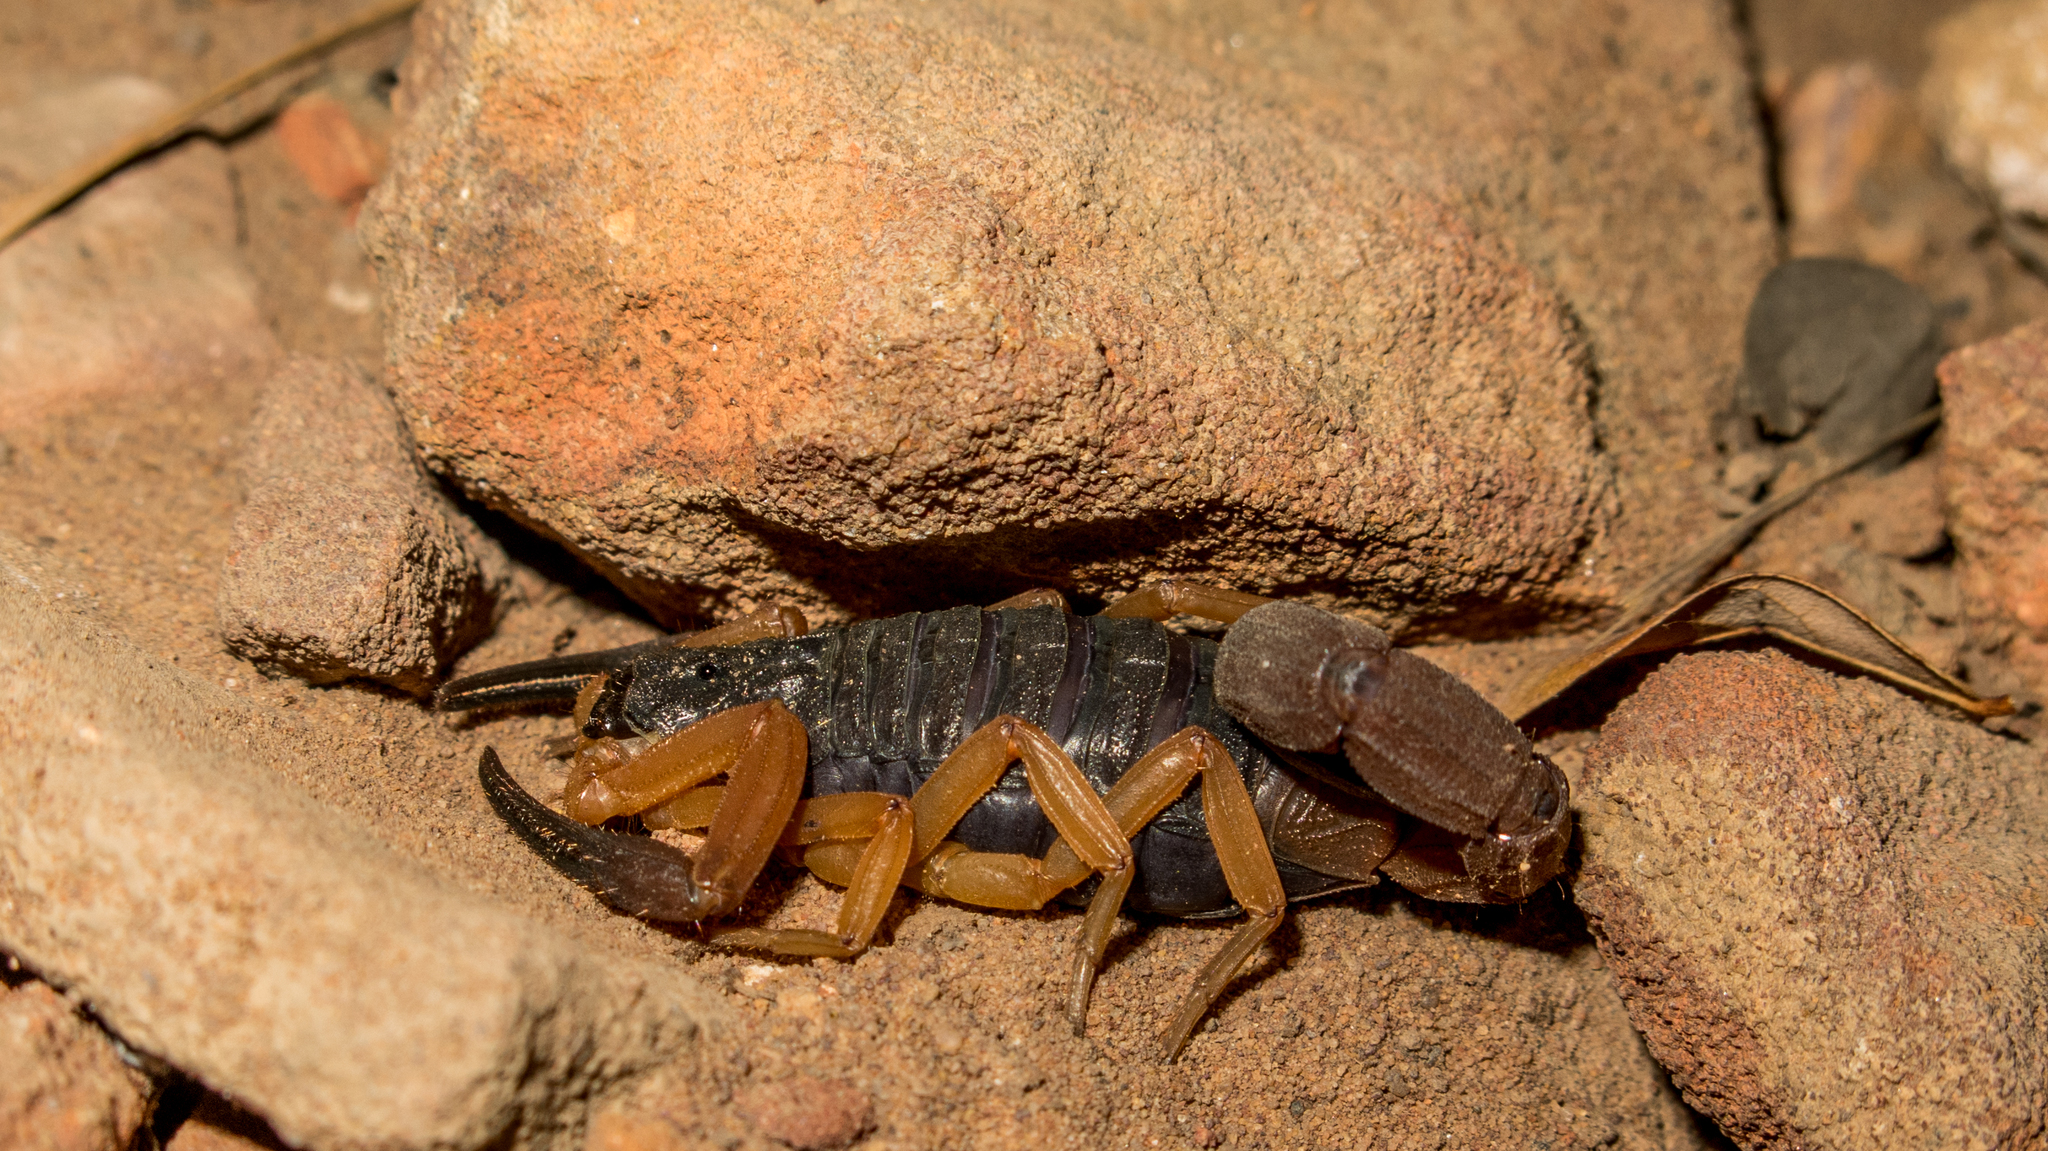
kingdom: Animalia
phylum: Arthropoda
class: Arachnida
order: Scorpiones
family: Buthidae
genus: Jaguajir
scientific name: Jaguajir agamemnon
